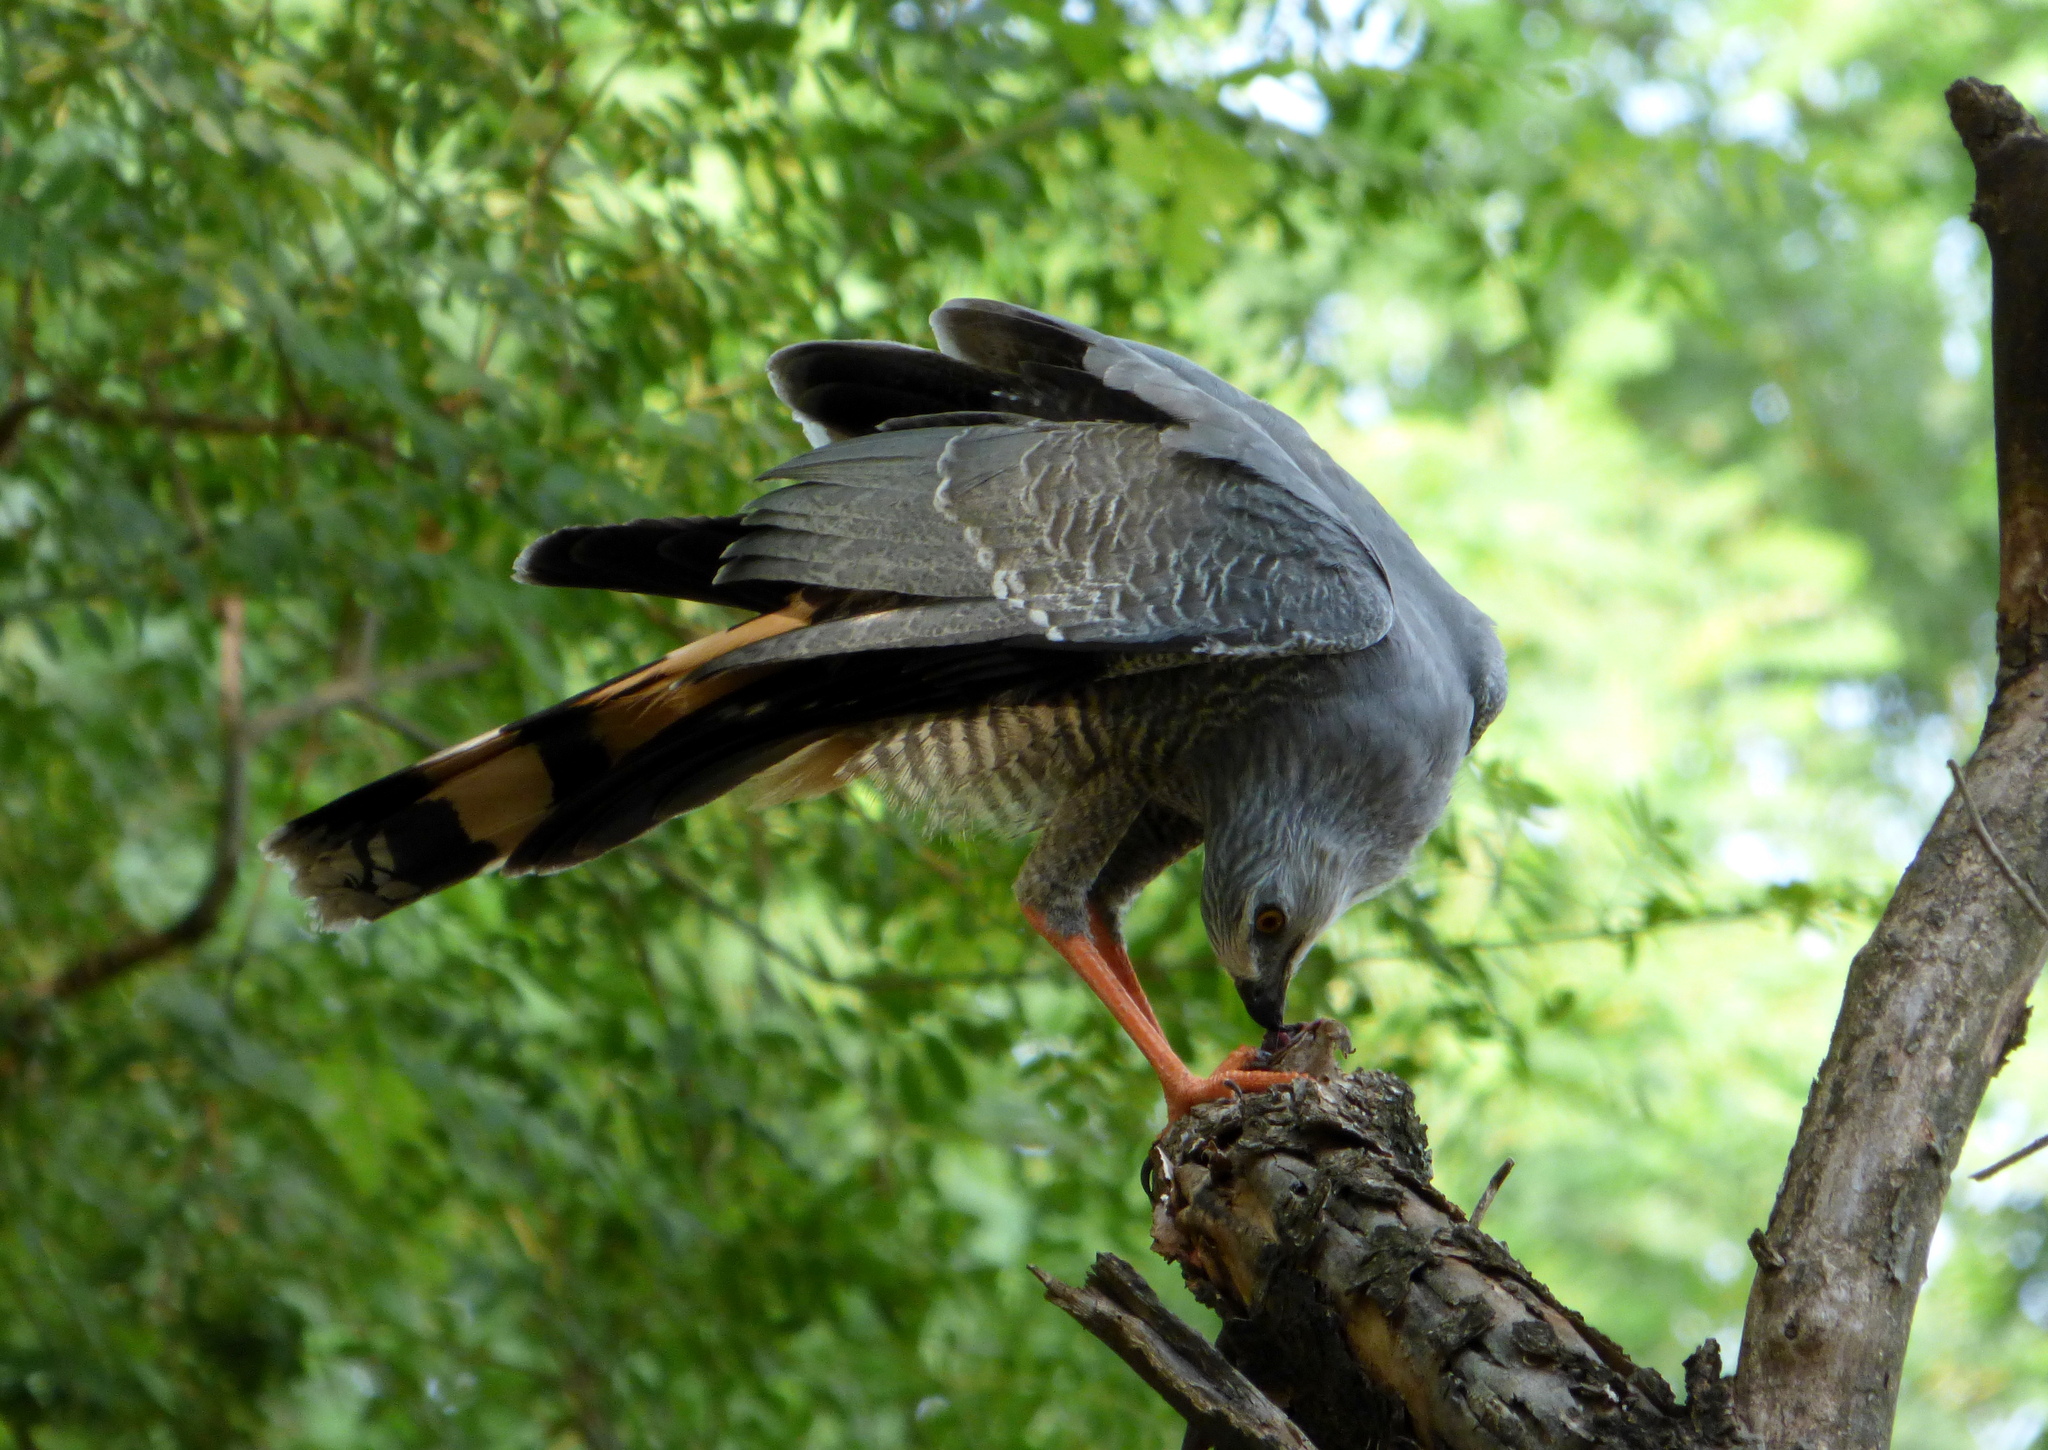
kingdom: Animalia
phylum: Chordata
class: Aves
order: Accipitriformes
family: Accipitridae
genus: Geranospiza
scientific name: Geranospiza caerulescens
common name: Crane hawk
